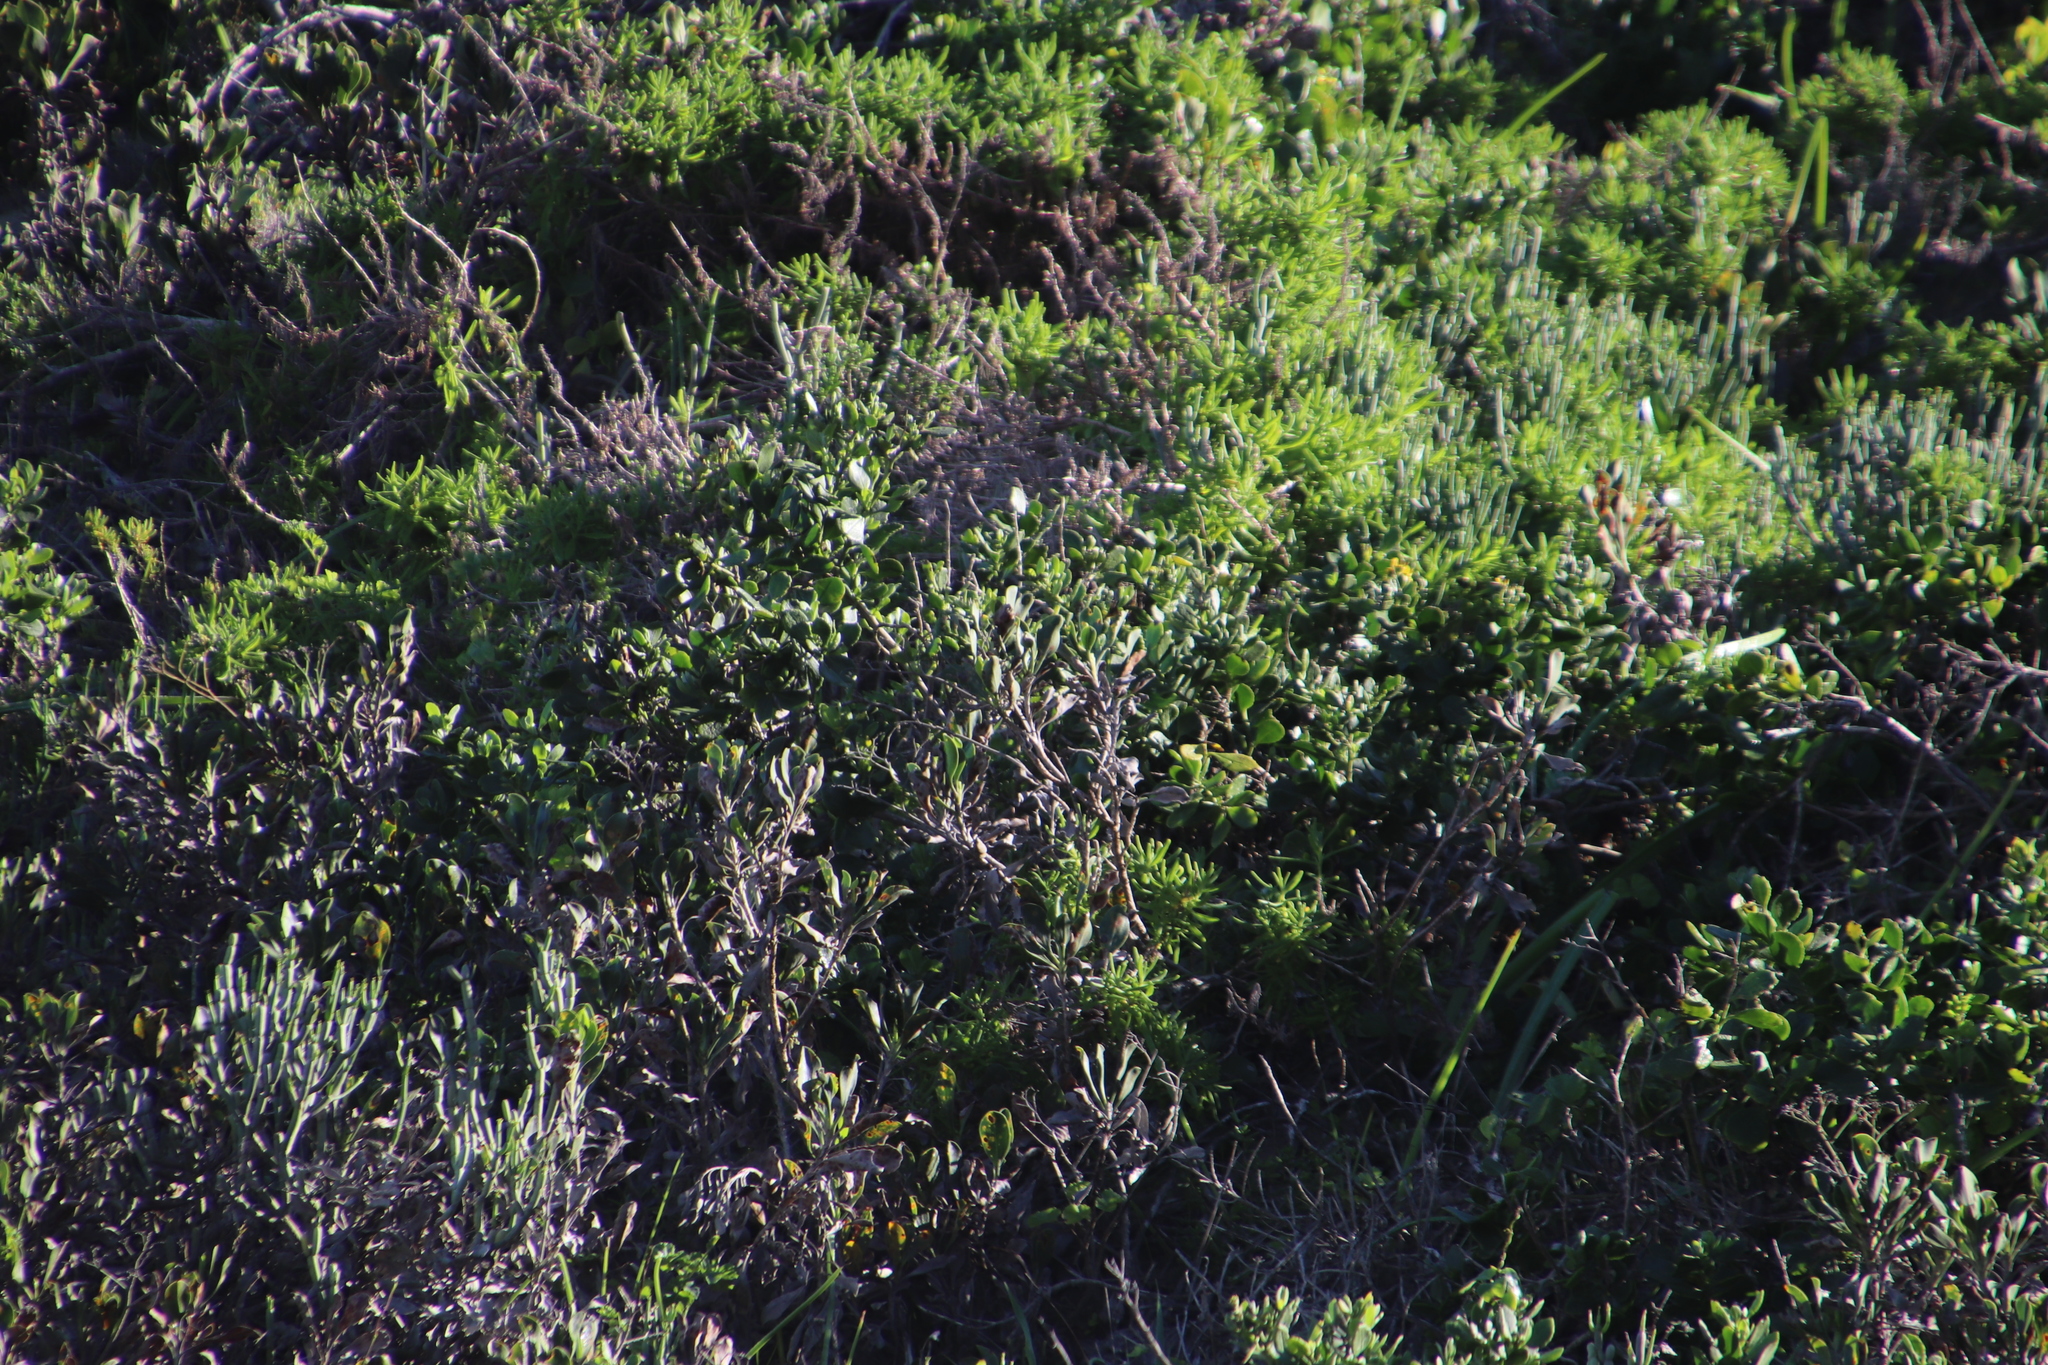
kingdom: Plantae
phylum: Tracheophyta
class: Magnoliopsida
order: Caryophyllales
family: Plumbaginaceae
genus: Limonium
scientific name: Limonium peregrinum
